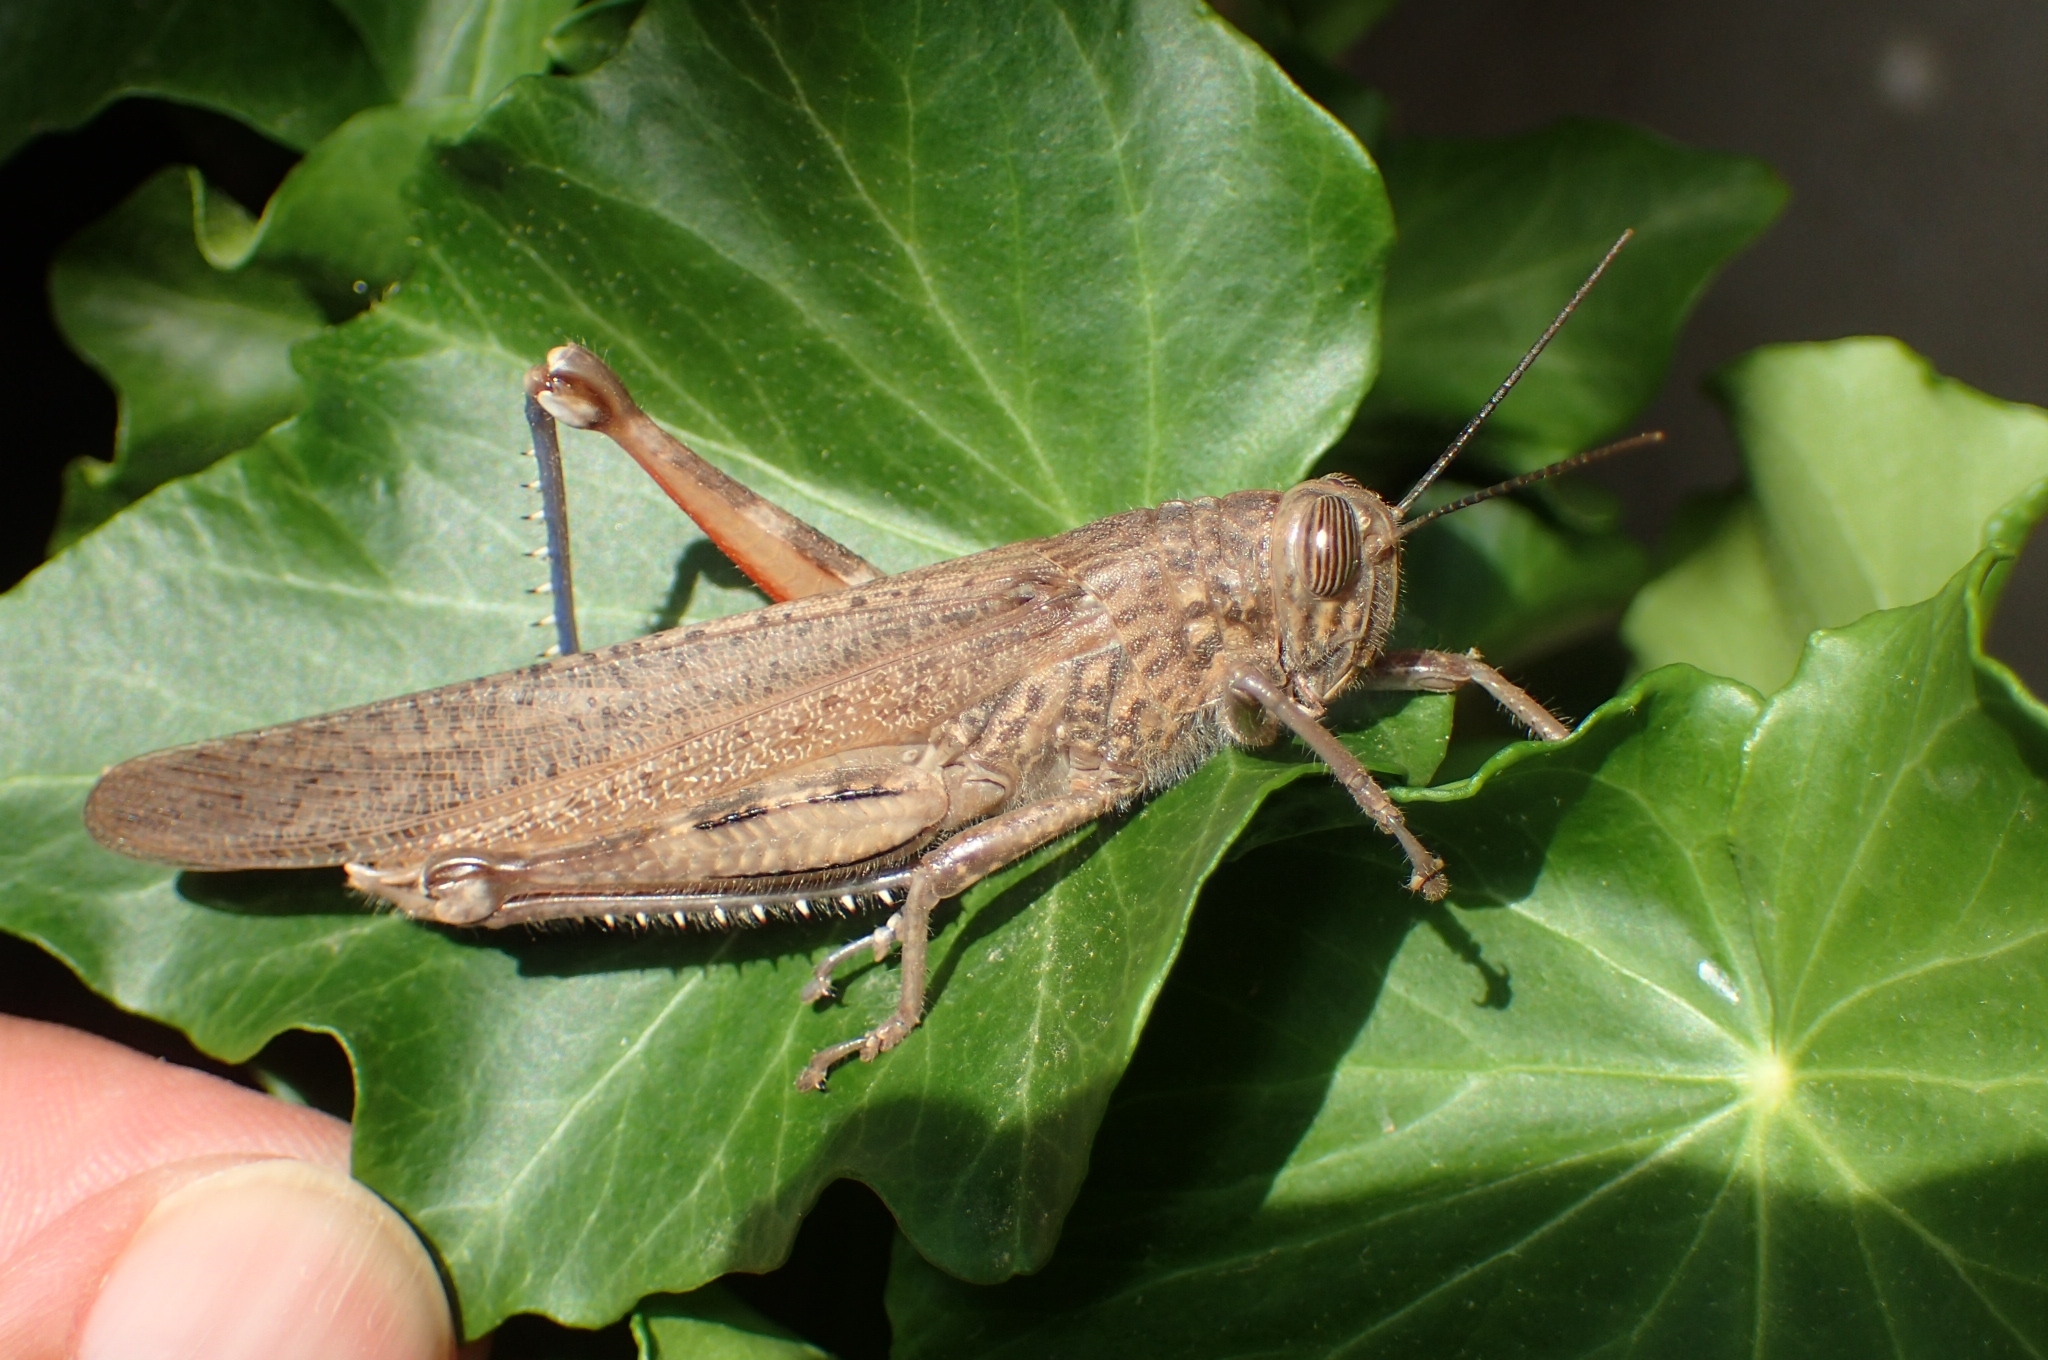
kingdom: Animalia
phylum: Arthropoda
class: Insecta
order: Orthoptera
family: Acrididae
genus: Anacridium
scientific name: Anacridium aegyptium
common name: Egyptian grasshopper
